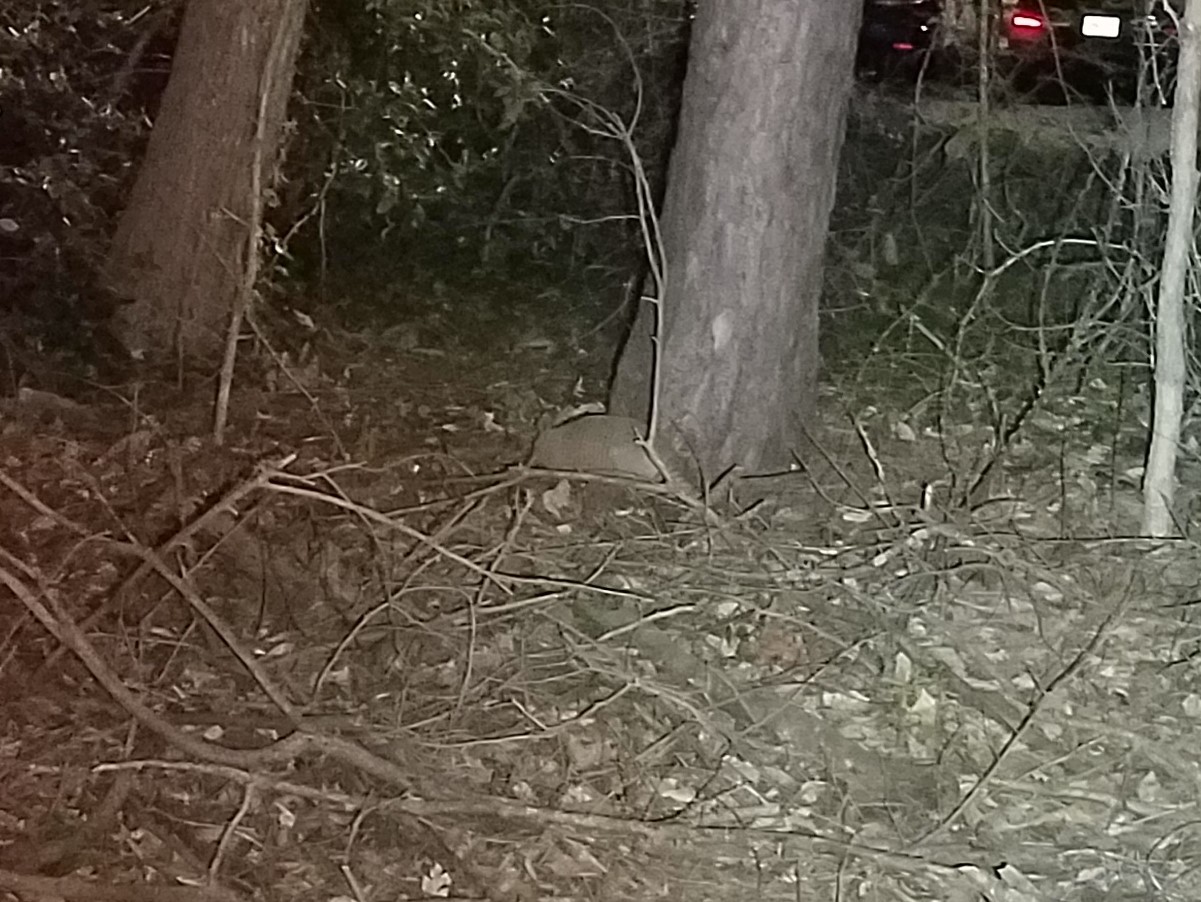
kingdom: Animalia
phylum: Chordata
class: Mammalia
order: Cingulata
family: Dasypodidae
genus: Dasypus
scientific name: Dasypus novemcinctus
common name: Nine-banded armadillo
